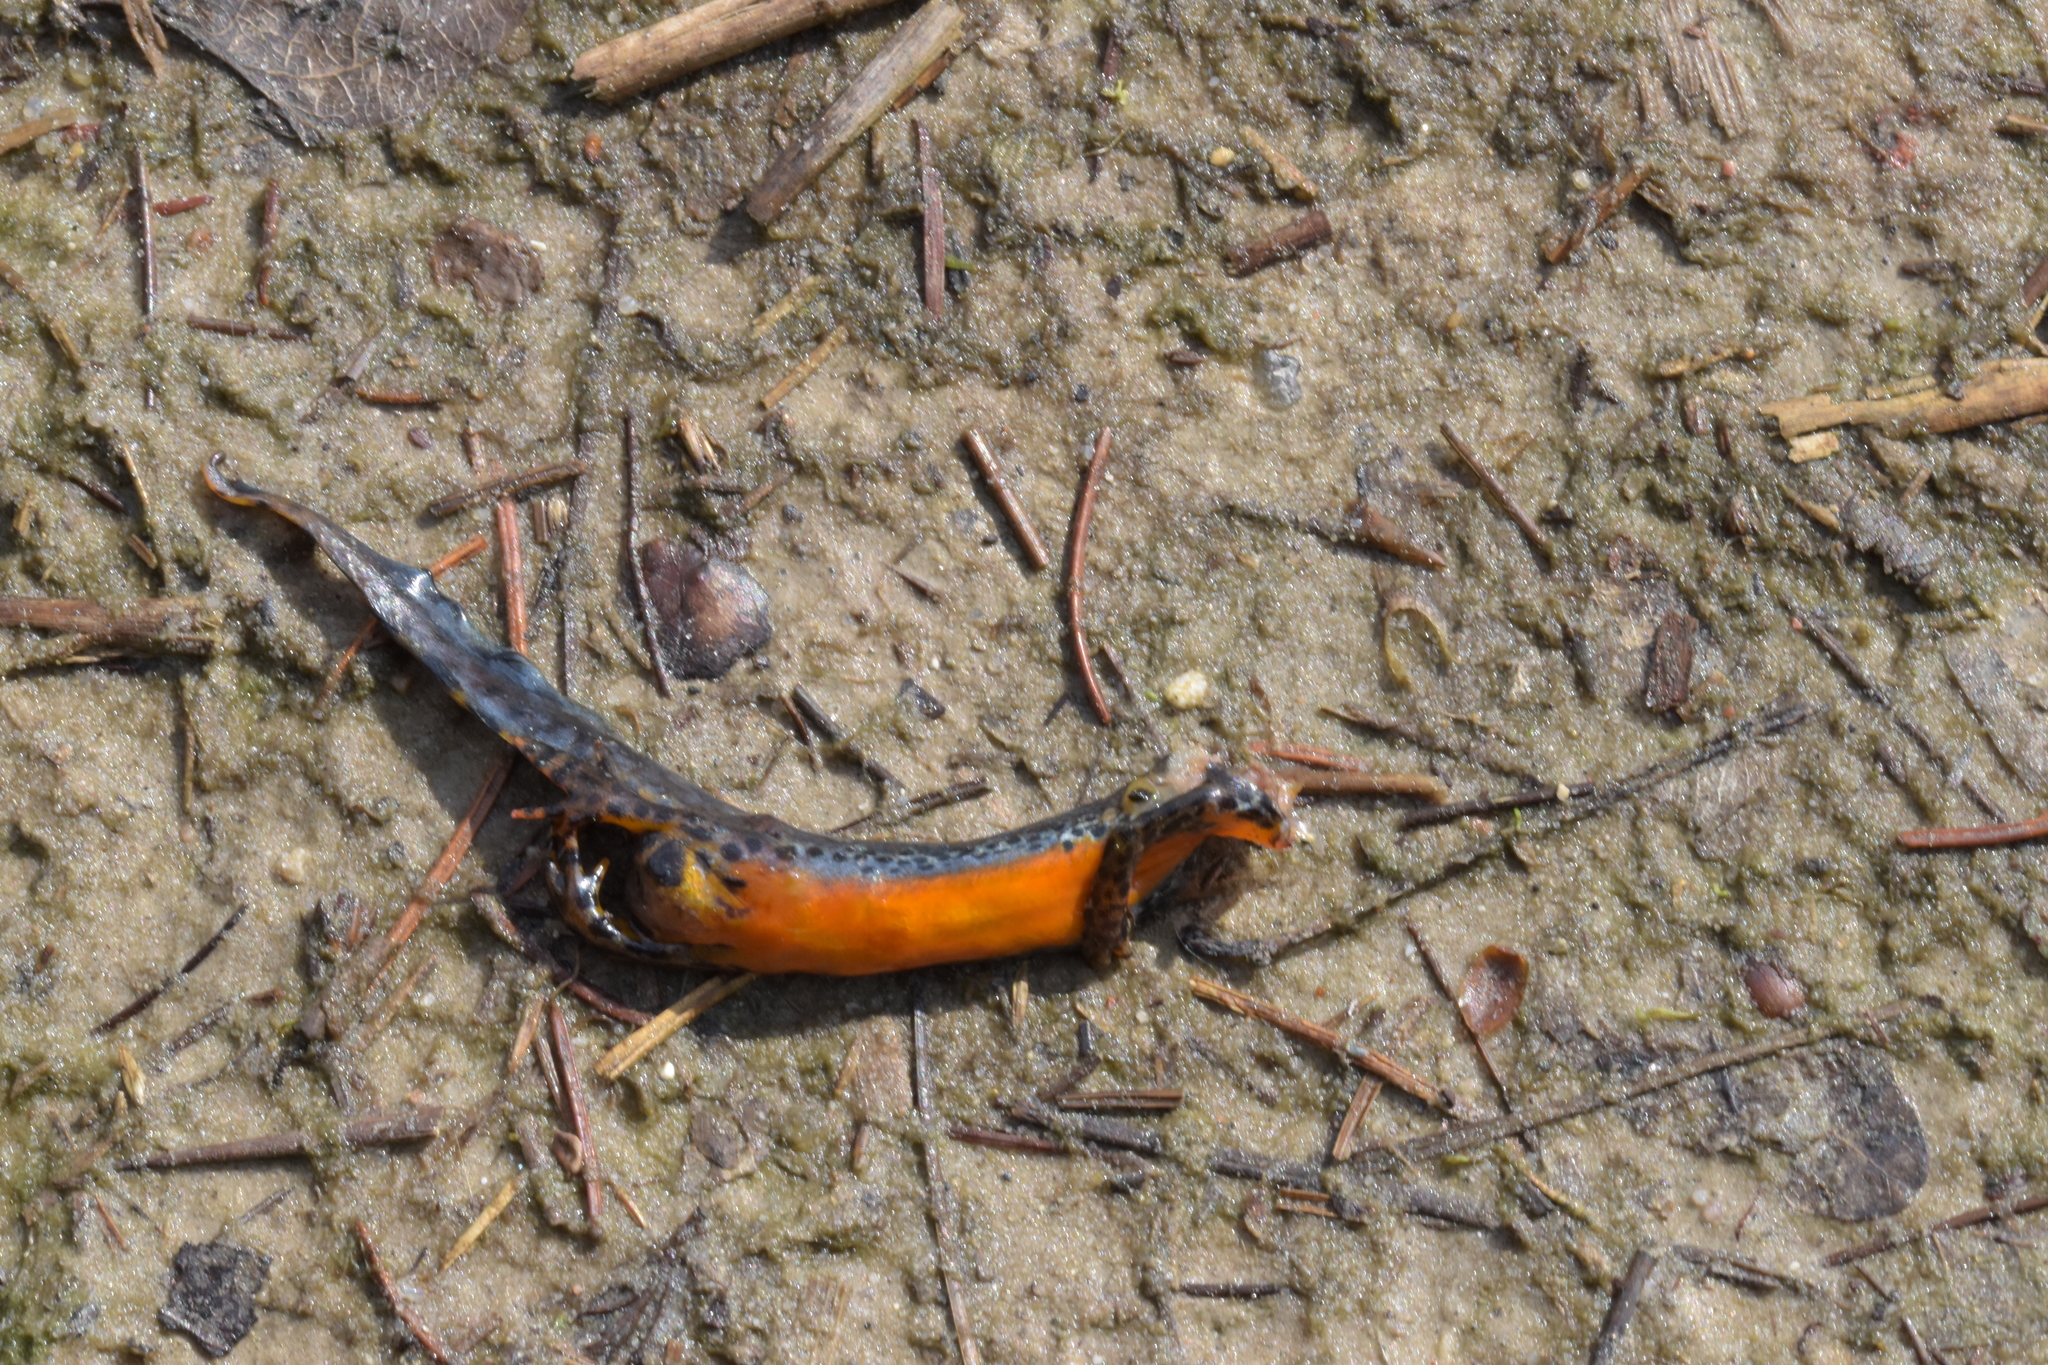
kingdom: Animalia
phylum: Chordata
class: Amphibia
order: Caudata
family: Salamandridae
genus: Ichthyosaura
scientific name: Ichthyosaura alpestris
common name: Alpine newt
